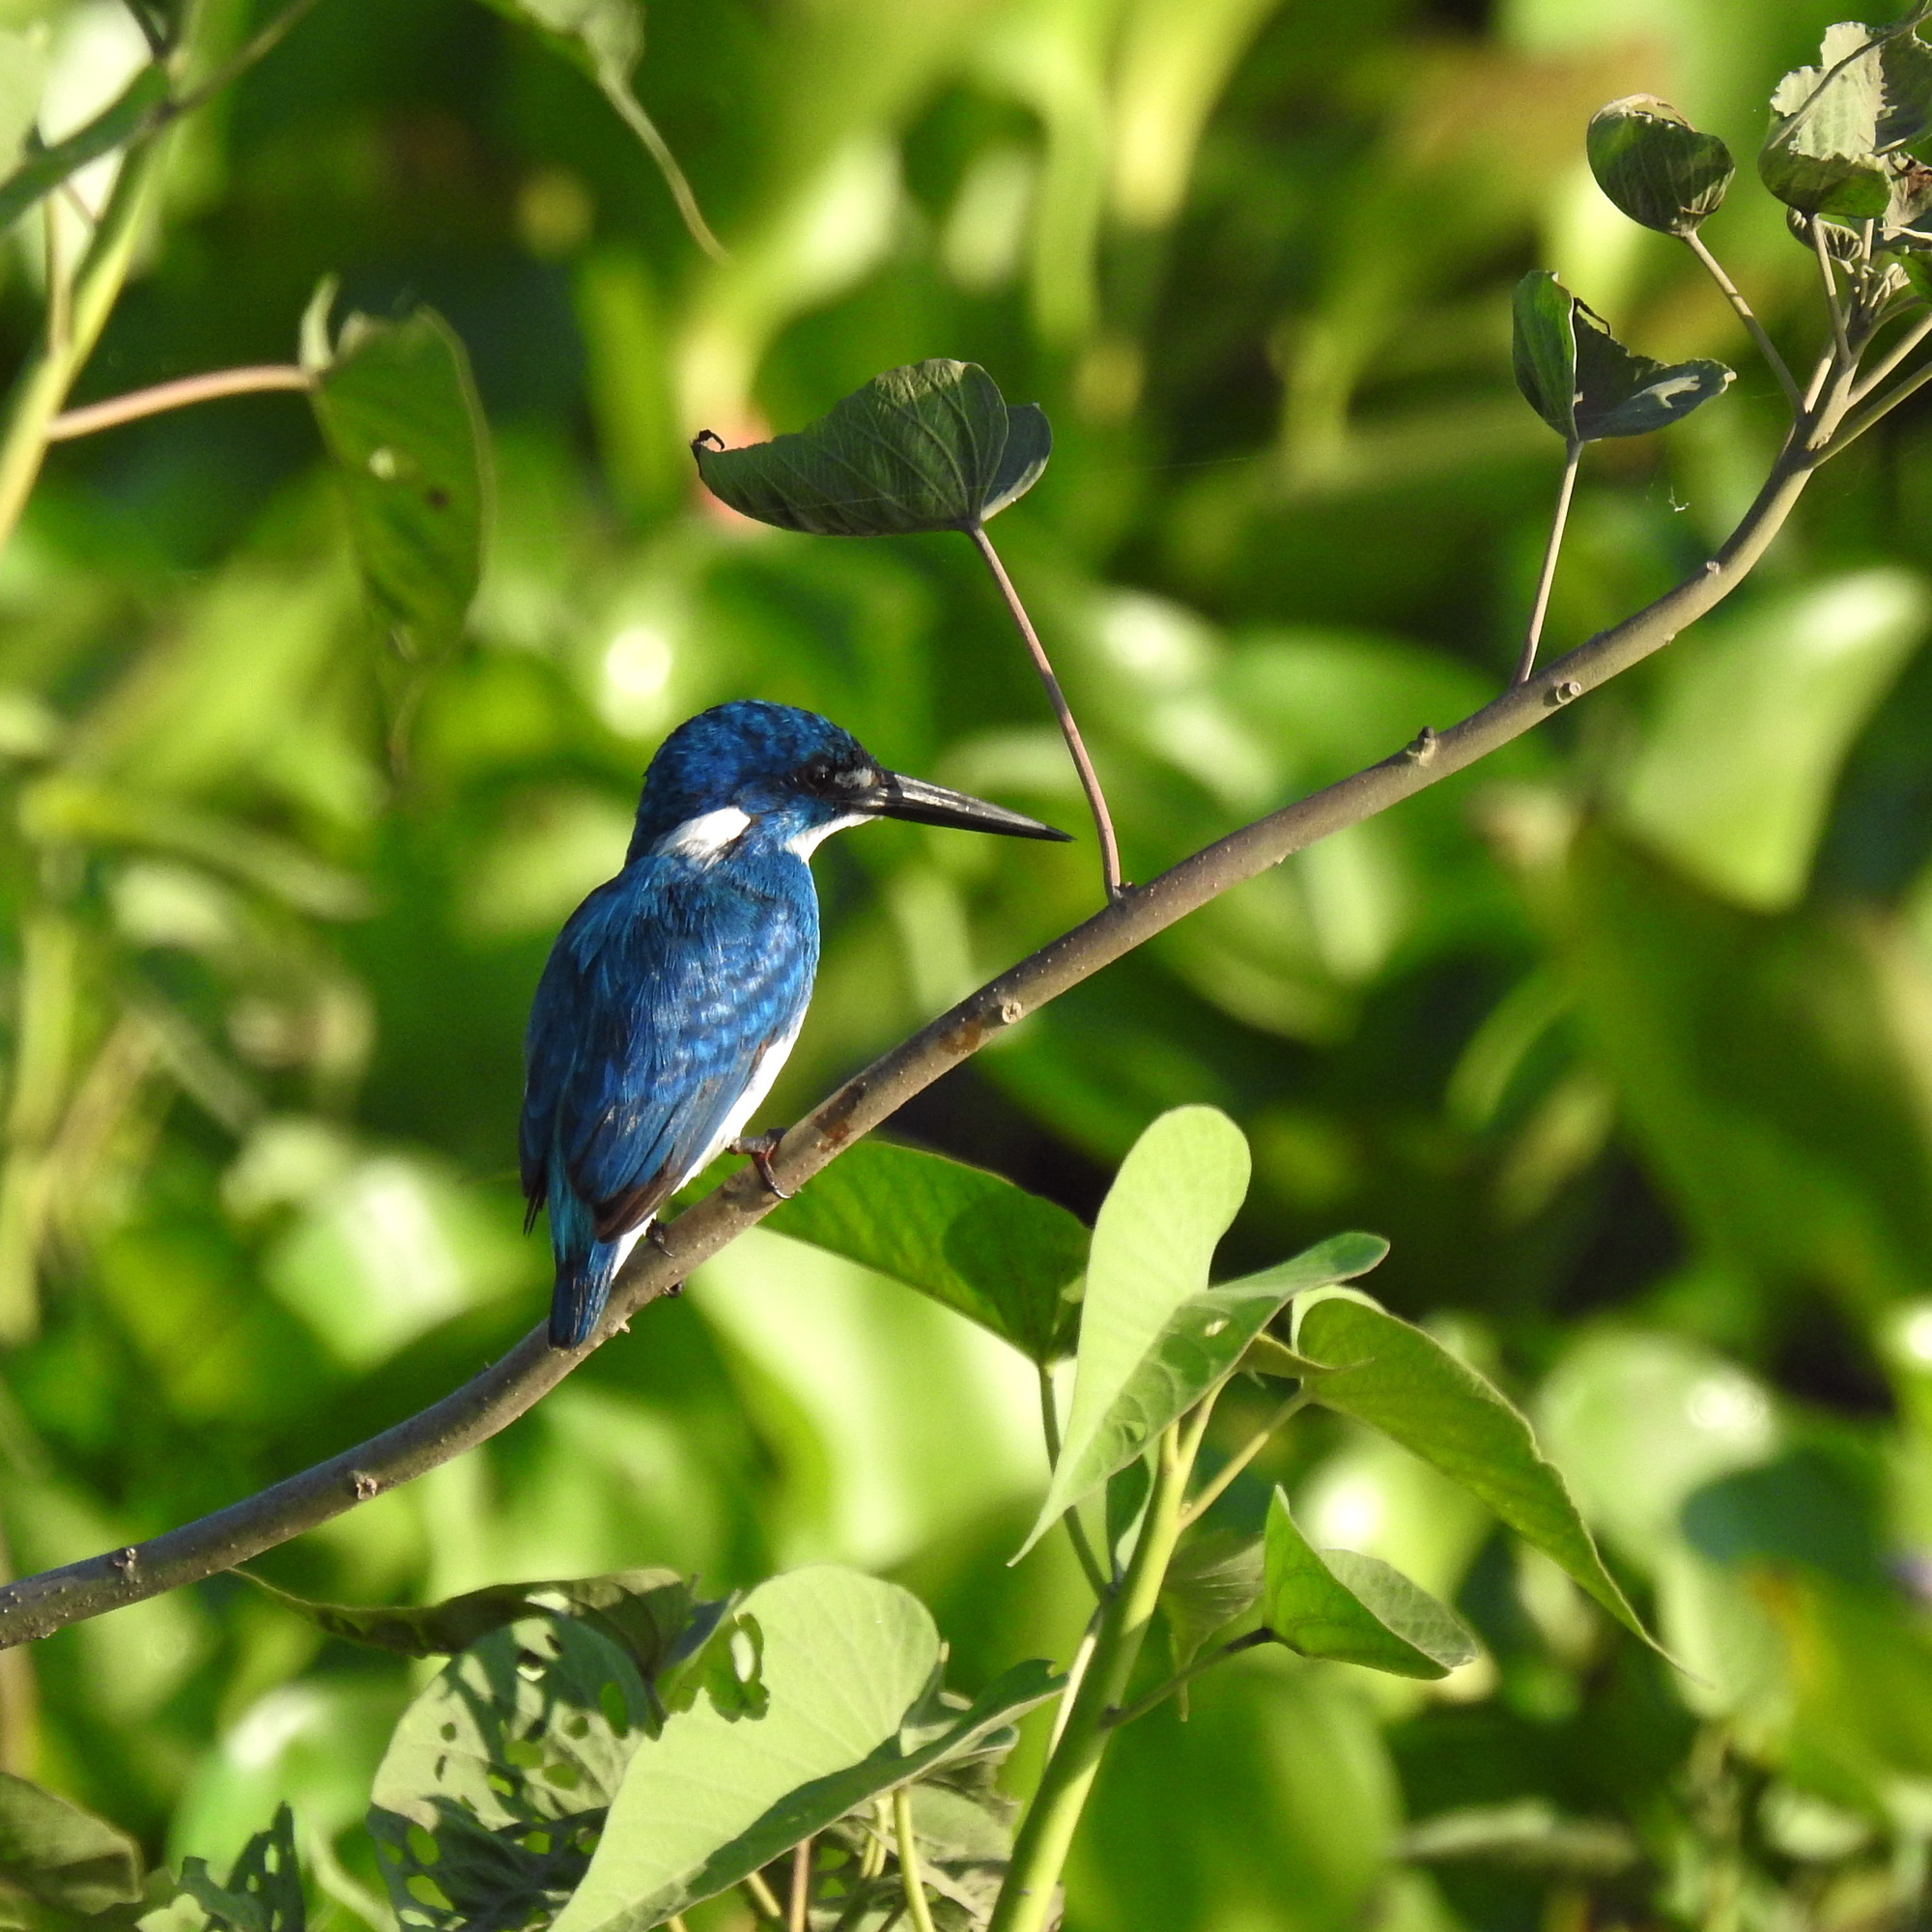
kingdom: Animalia
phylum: Chordata
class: Aves
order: Coraciiformes
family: Alcedinidae
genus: Alcedo
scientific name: Alcedo coerulescens
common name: Cerulean kingfisher
